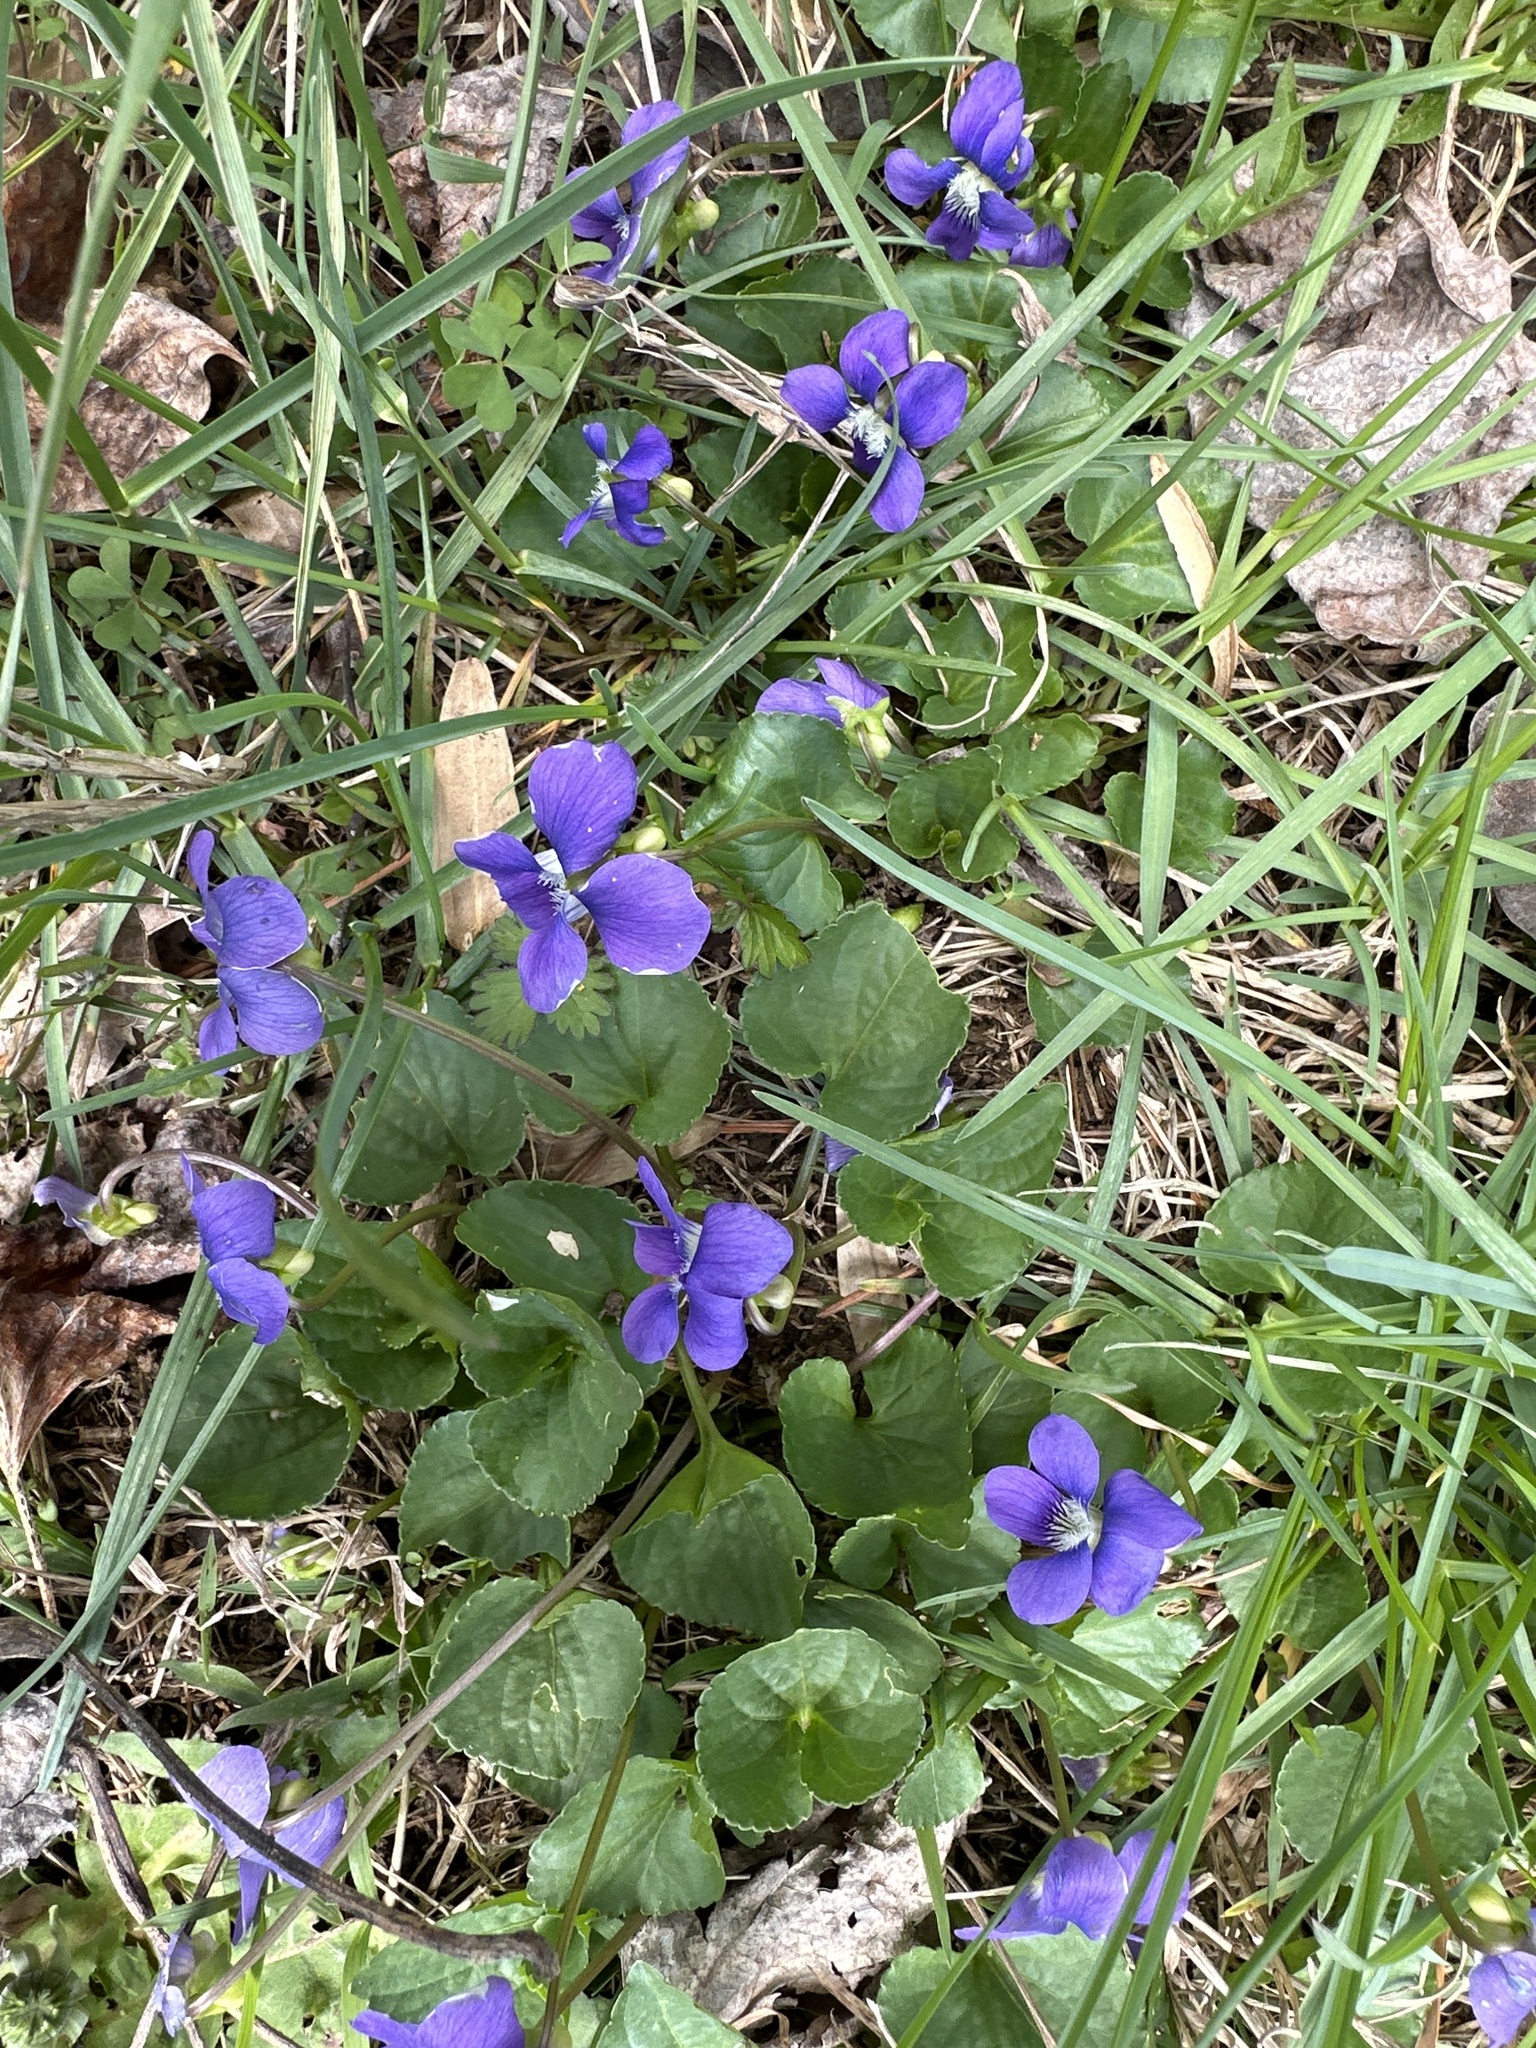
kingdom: Plantae
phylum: Tracheophyta
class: Magnoliopsida
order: Malpighiales
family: Violaceae
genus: Viola
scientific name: Viola sororia
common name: Dooryard violet
